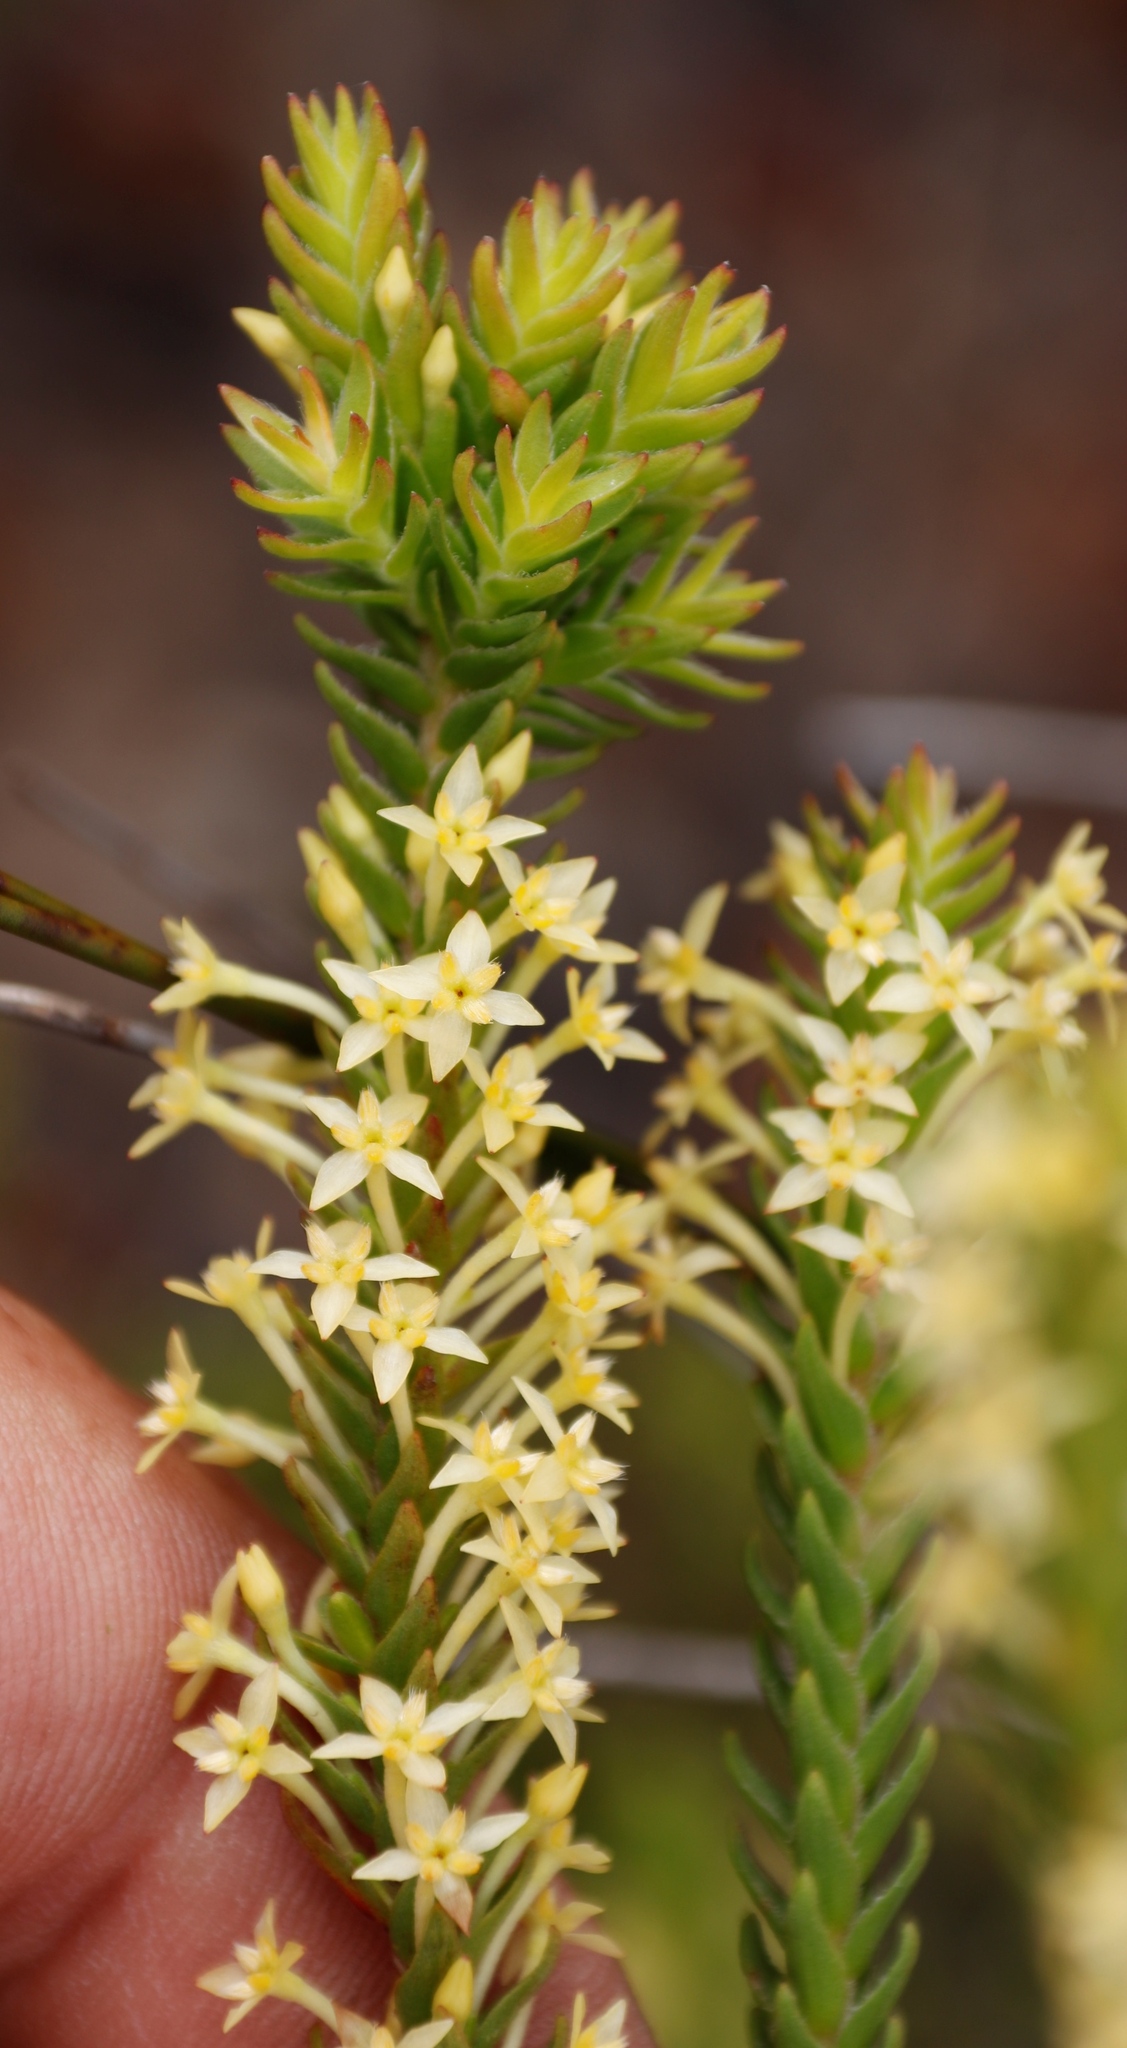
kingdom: Plantae
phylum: Tracheophyta
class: Magnoliopsida
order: Malvales
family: Thymelaeaceae
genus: Struthiola
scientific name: Struthiola striata
